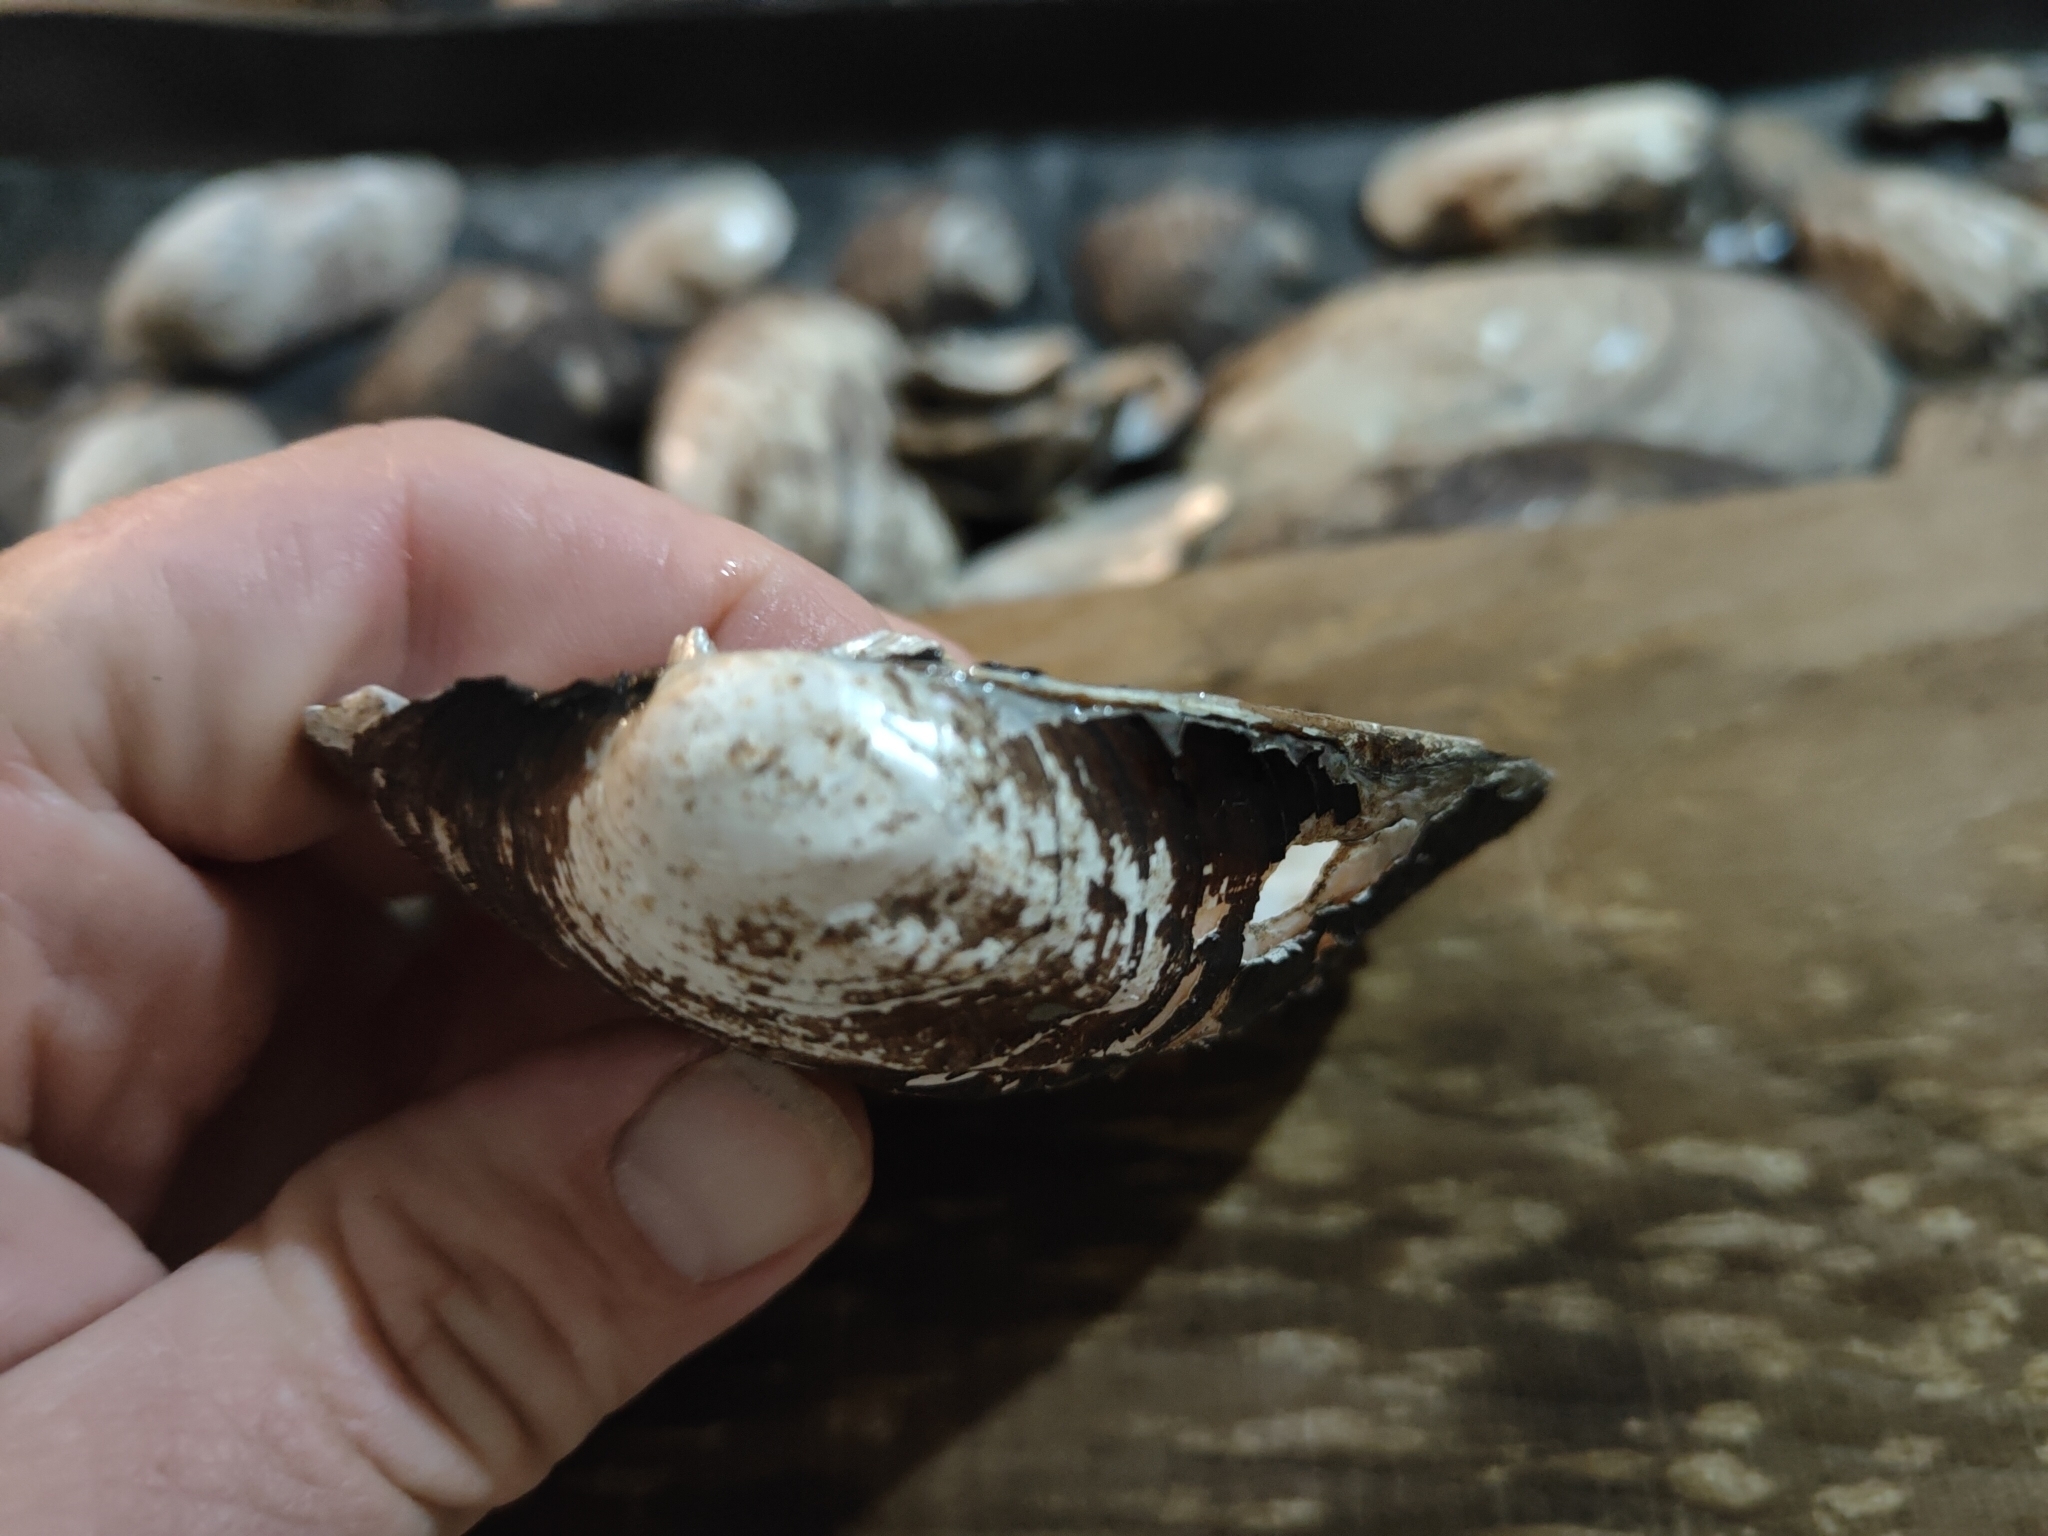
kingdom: Animalia
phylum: Mollusca
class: Bivalvia
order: Unionida
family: Unionidae
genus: Amblema
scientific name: Amblema plicata
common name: Threeridge
